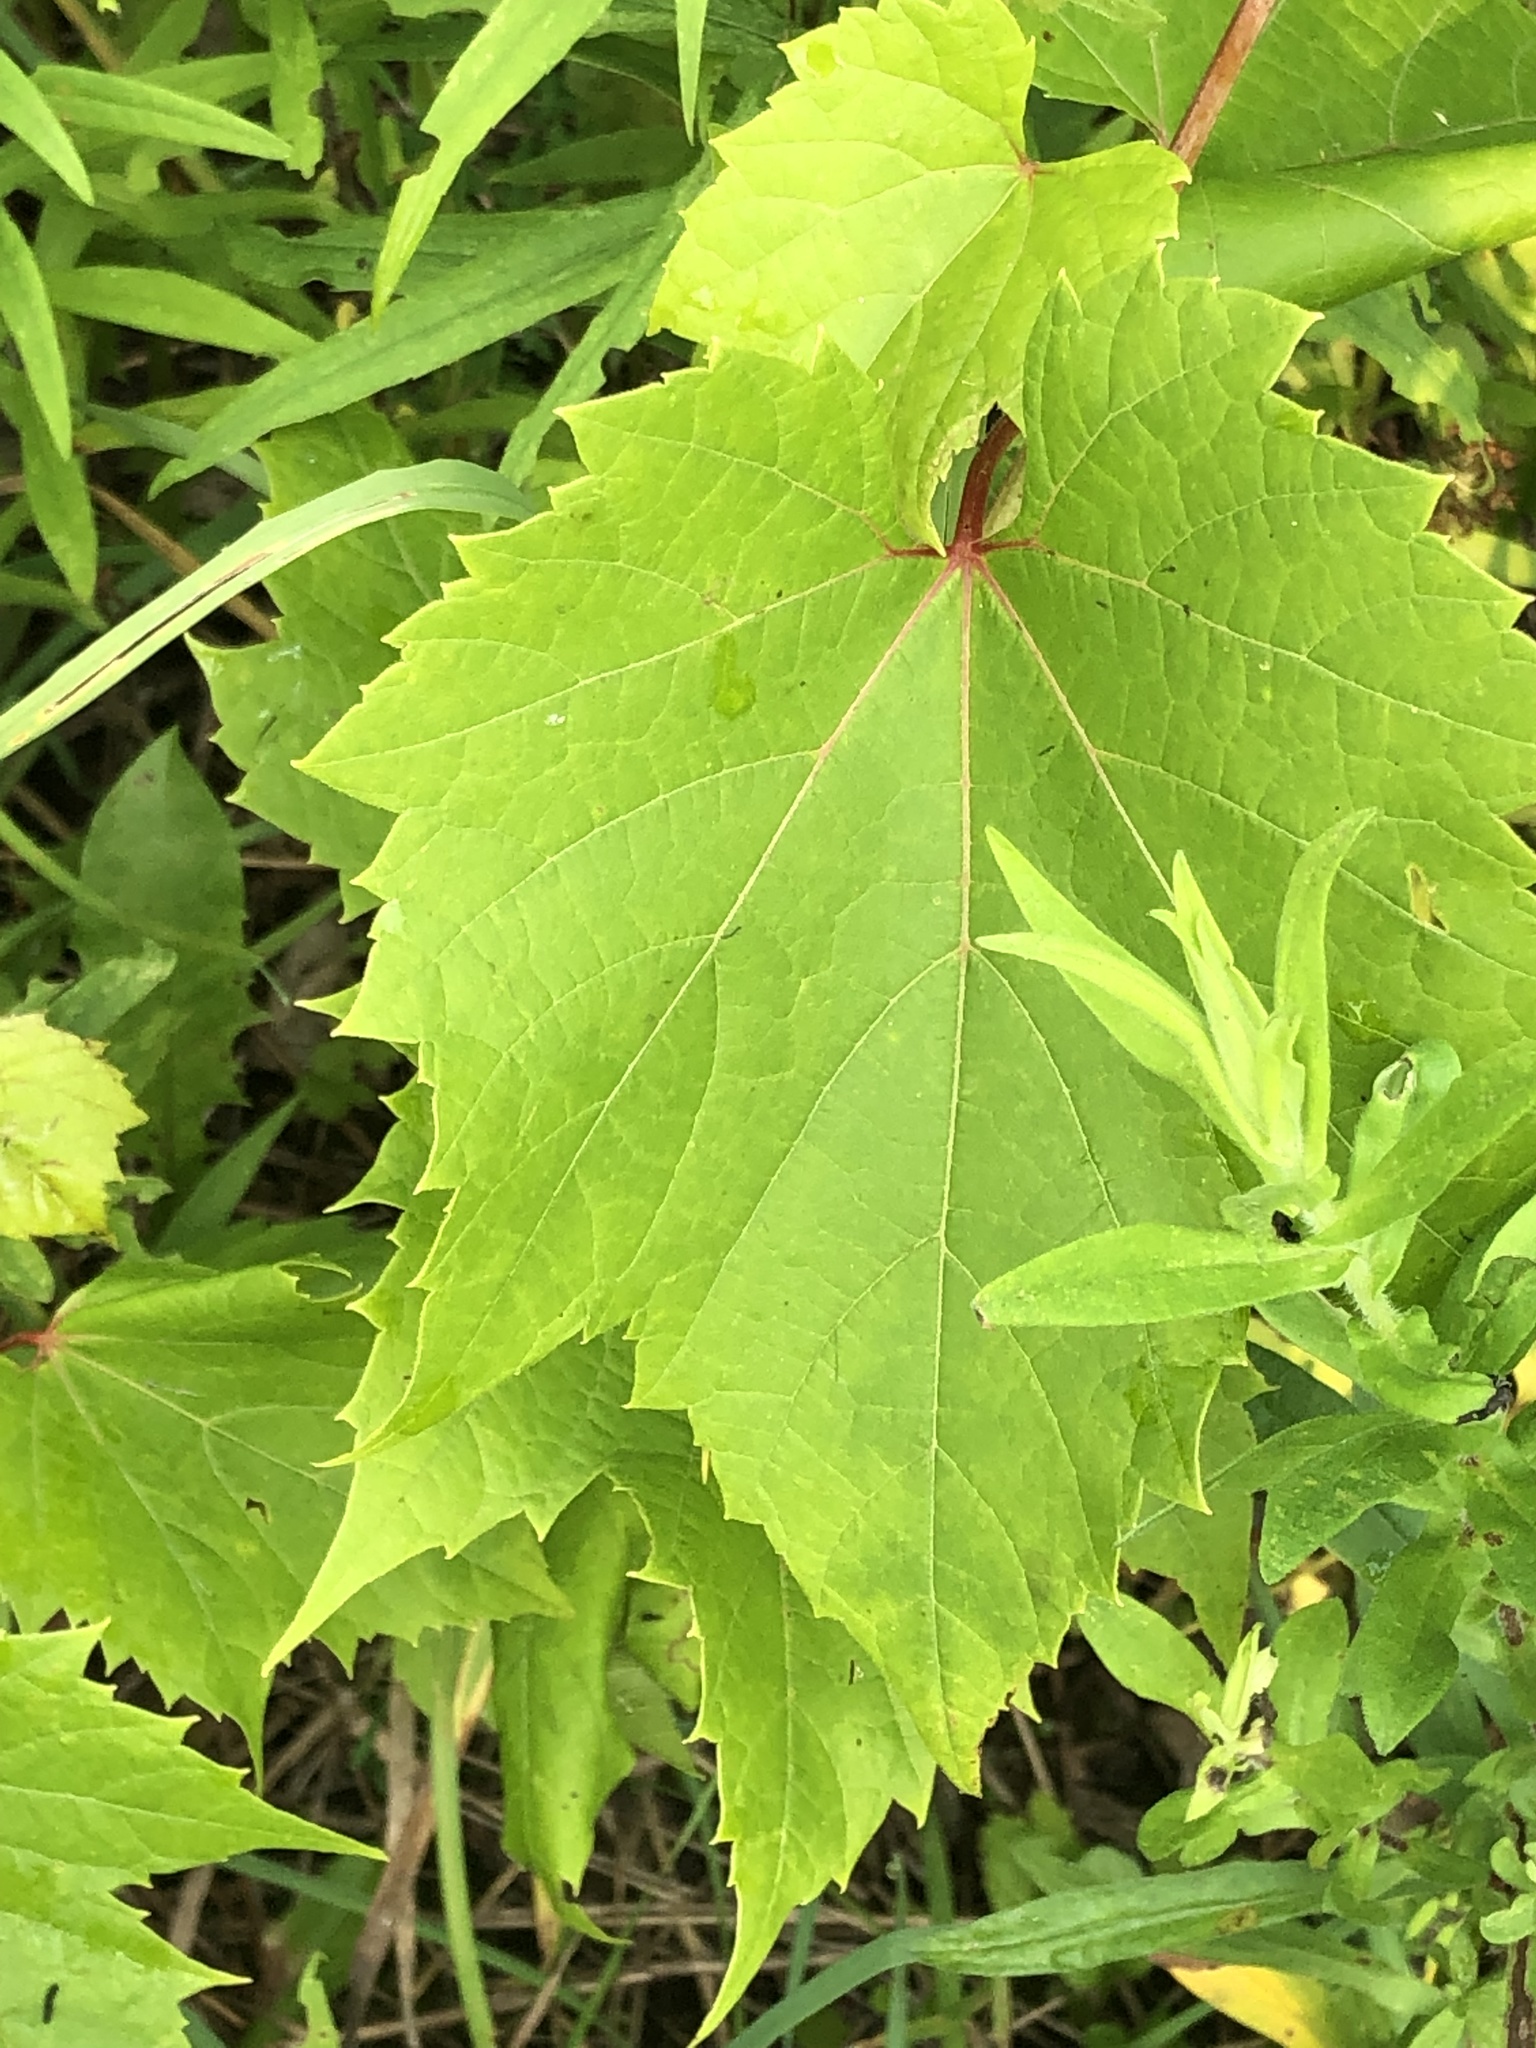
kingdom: Plantae
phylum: Tracheophyta
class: Magnoliopsida
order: Vitales
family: Vitaceae
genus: Vitis
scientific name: Vitis riparia
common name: Frost grape
